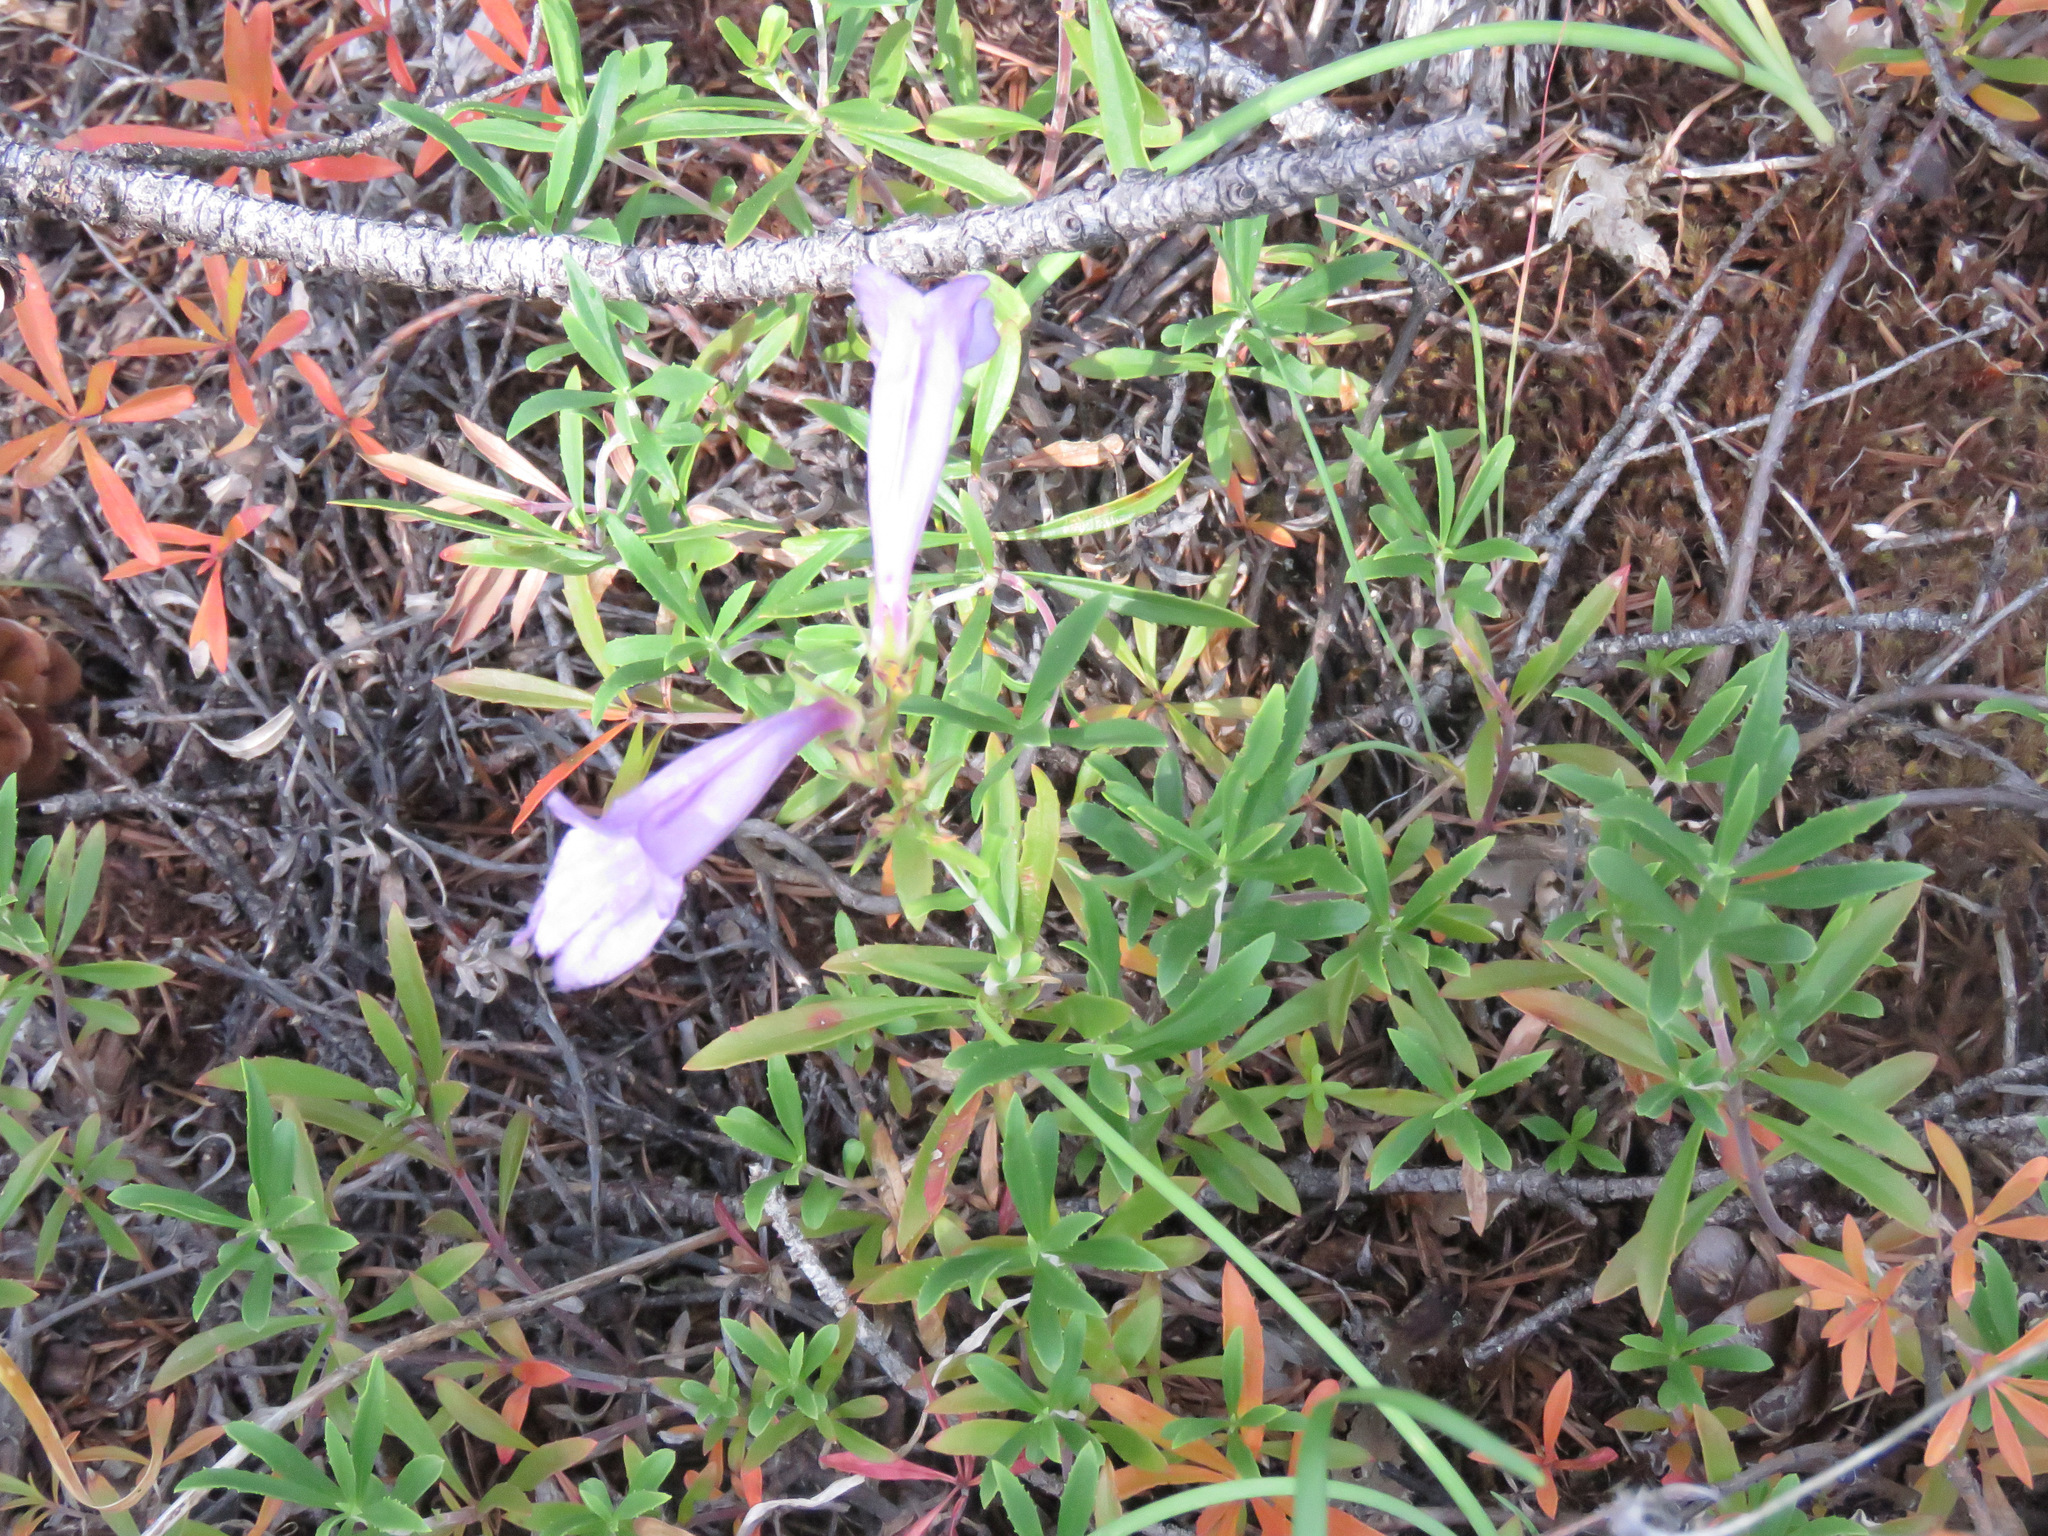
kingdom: Plantae
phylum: Tracheophyta
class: Magnoliopsida
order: Lamiales
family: Plantaginaceae
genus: Penstemon
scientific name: Penstemon fruticosus
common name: Bush penstemon
